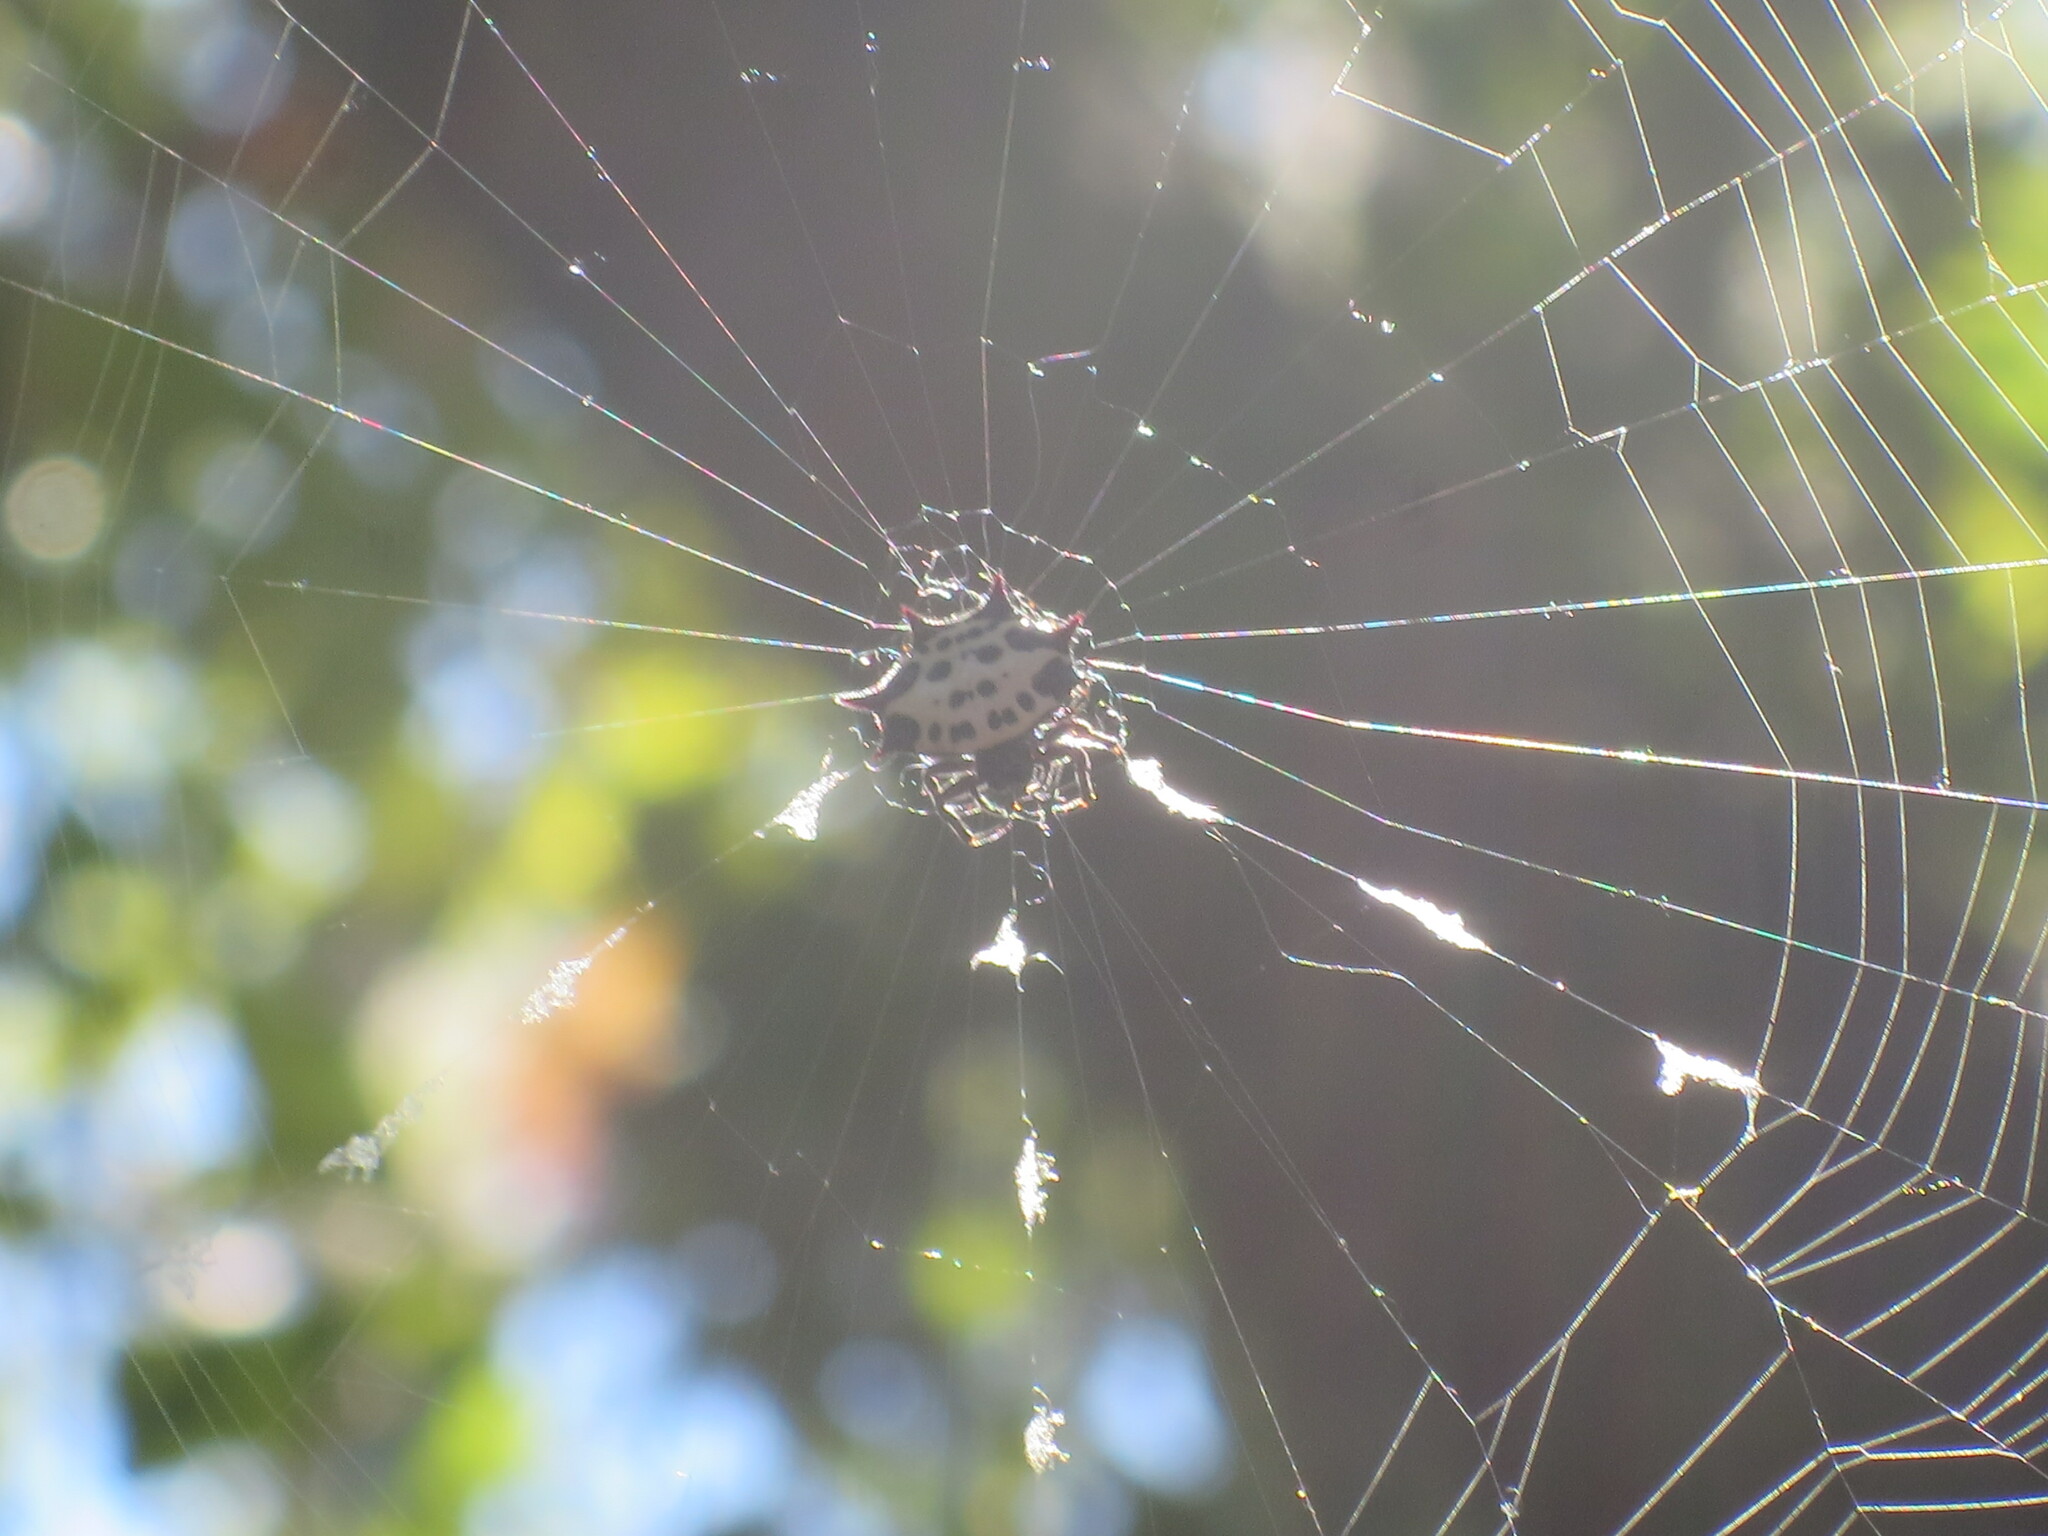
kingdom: Animalia
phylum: Arthropoda
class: Arachnida
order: Araneae
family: Araneidae
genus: Gasteracantha
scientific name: Gasteracantha cancriformis
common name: Orb weavers
